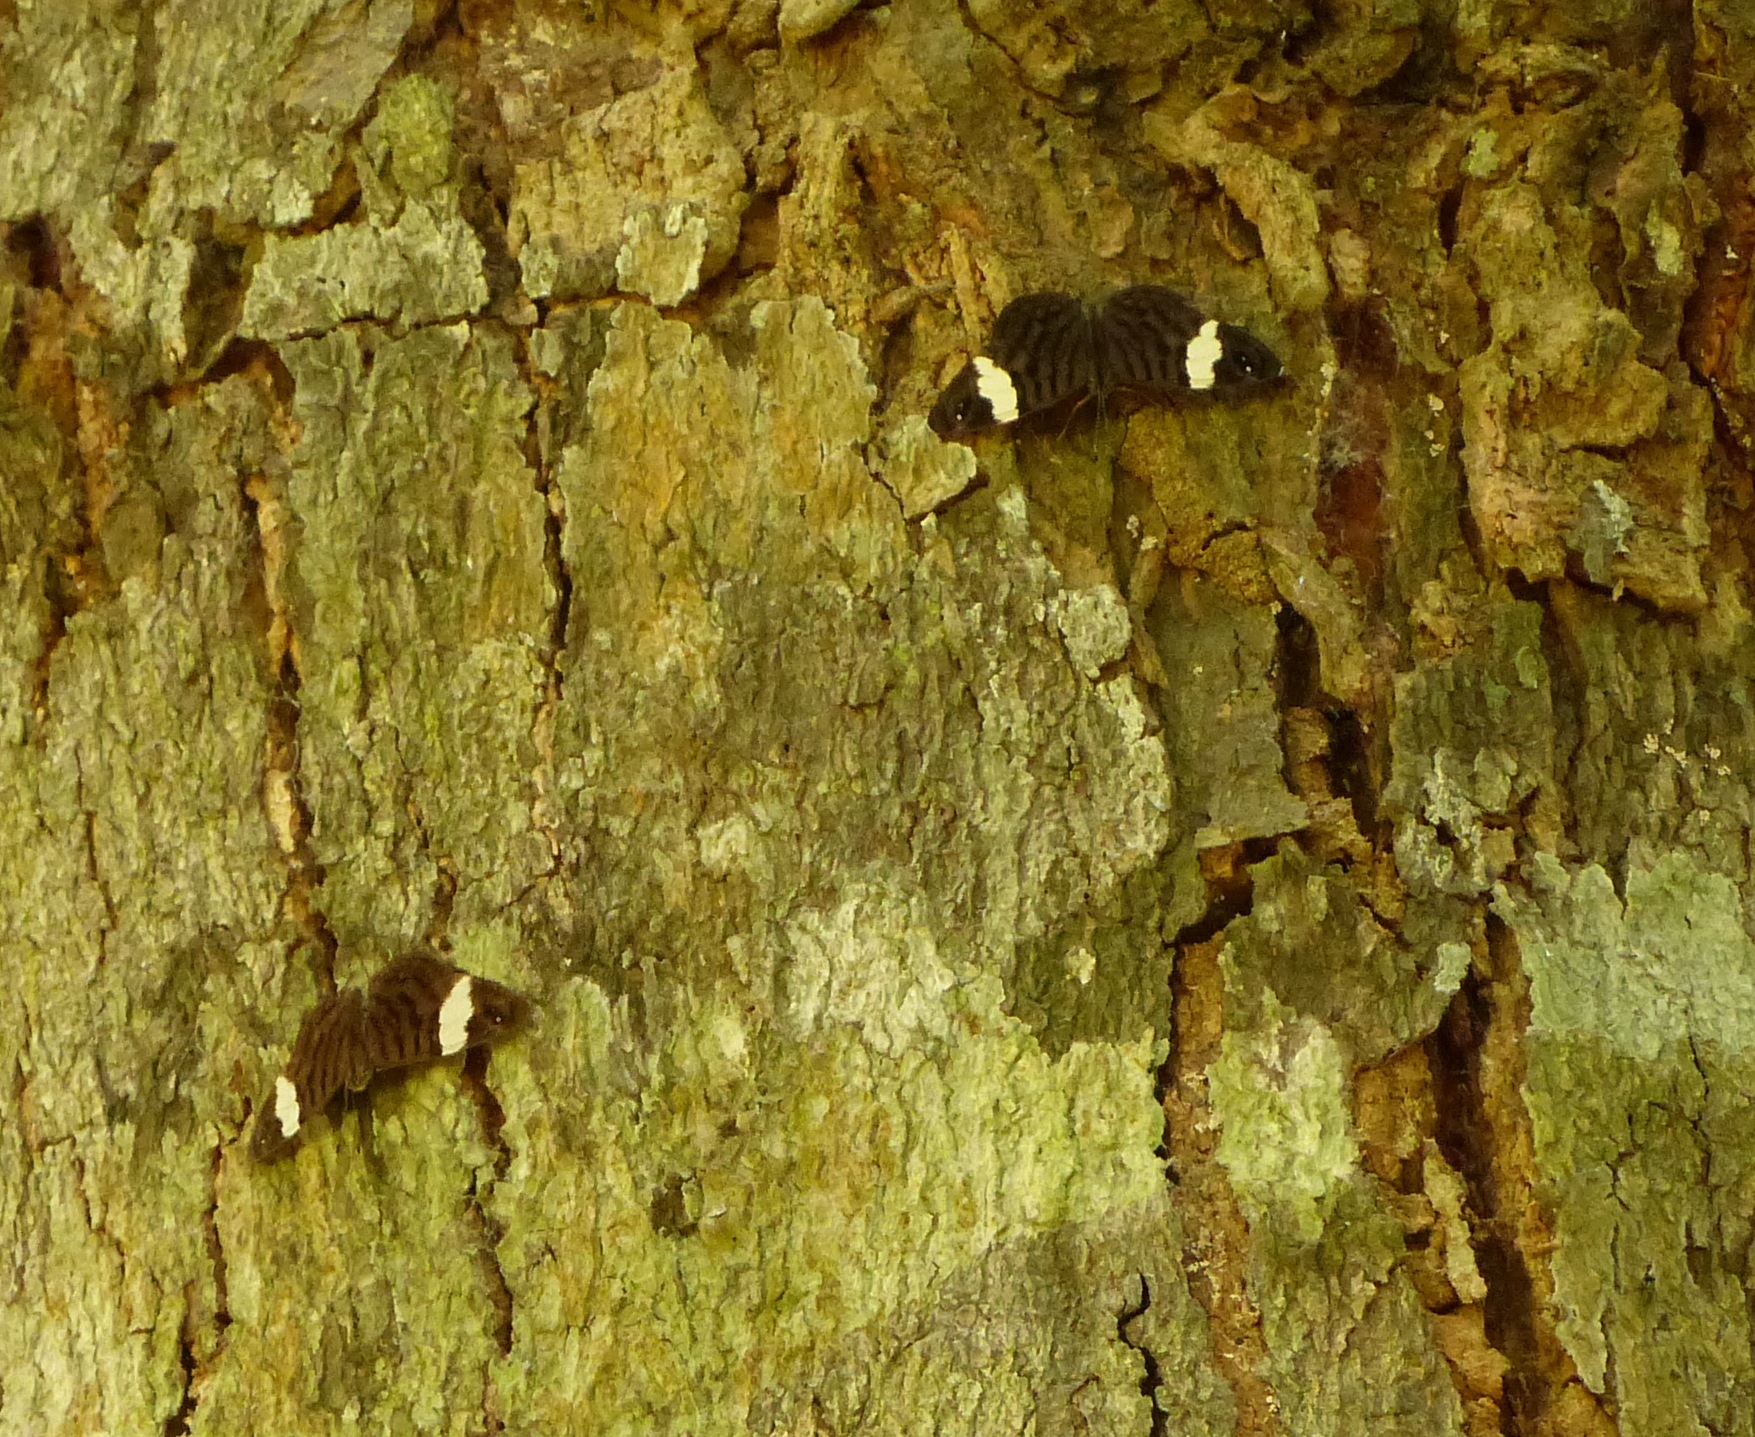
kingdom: Animalia
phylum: Arthropoda
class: Insecta
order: Lepidoptera
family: Nymphalidae
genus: Ectima
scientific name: Ectima thecla
